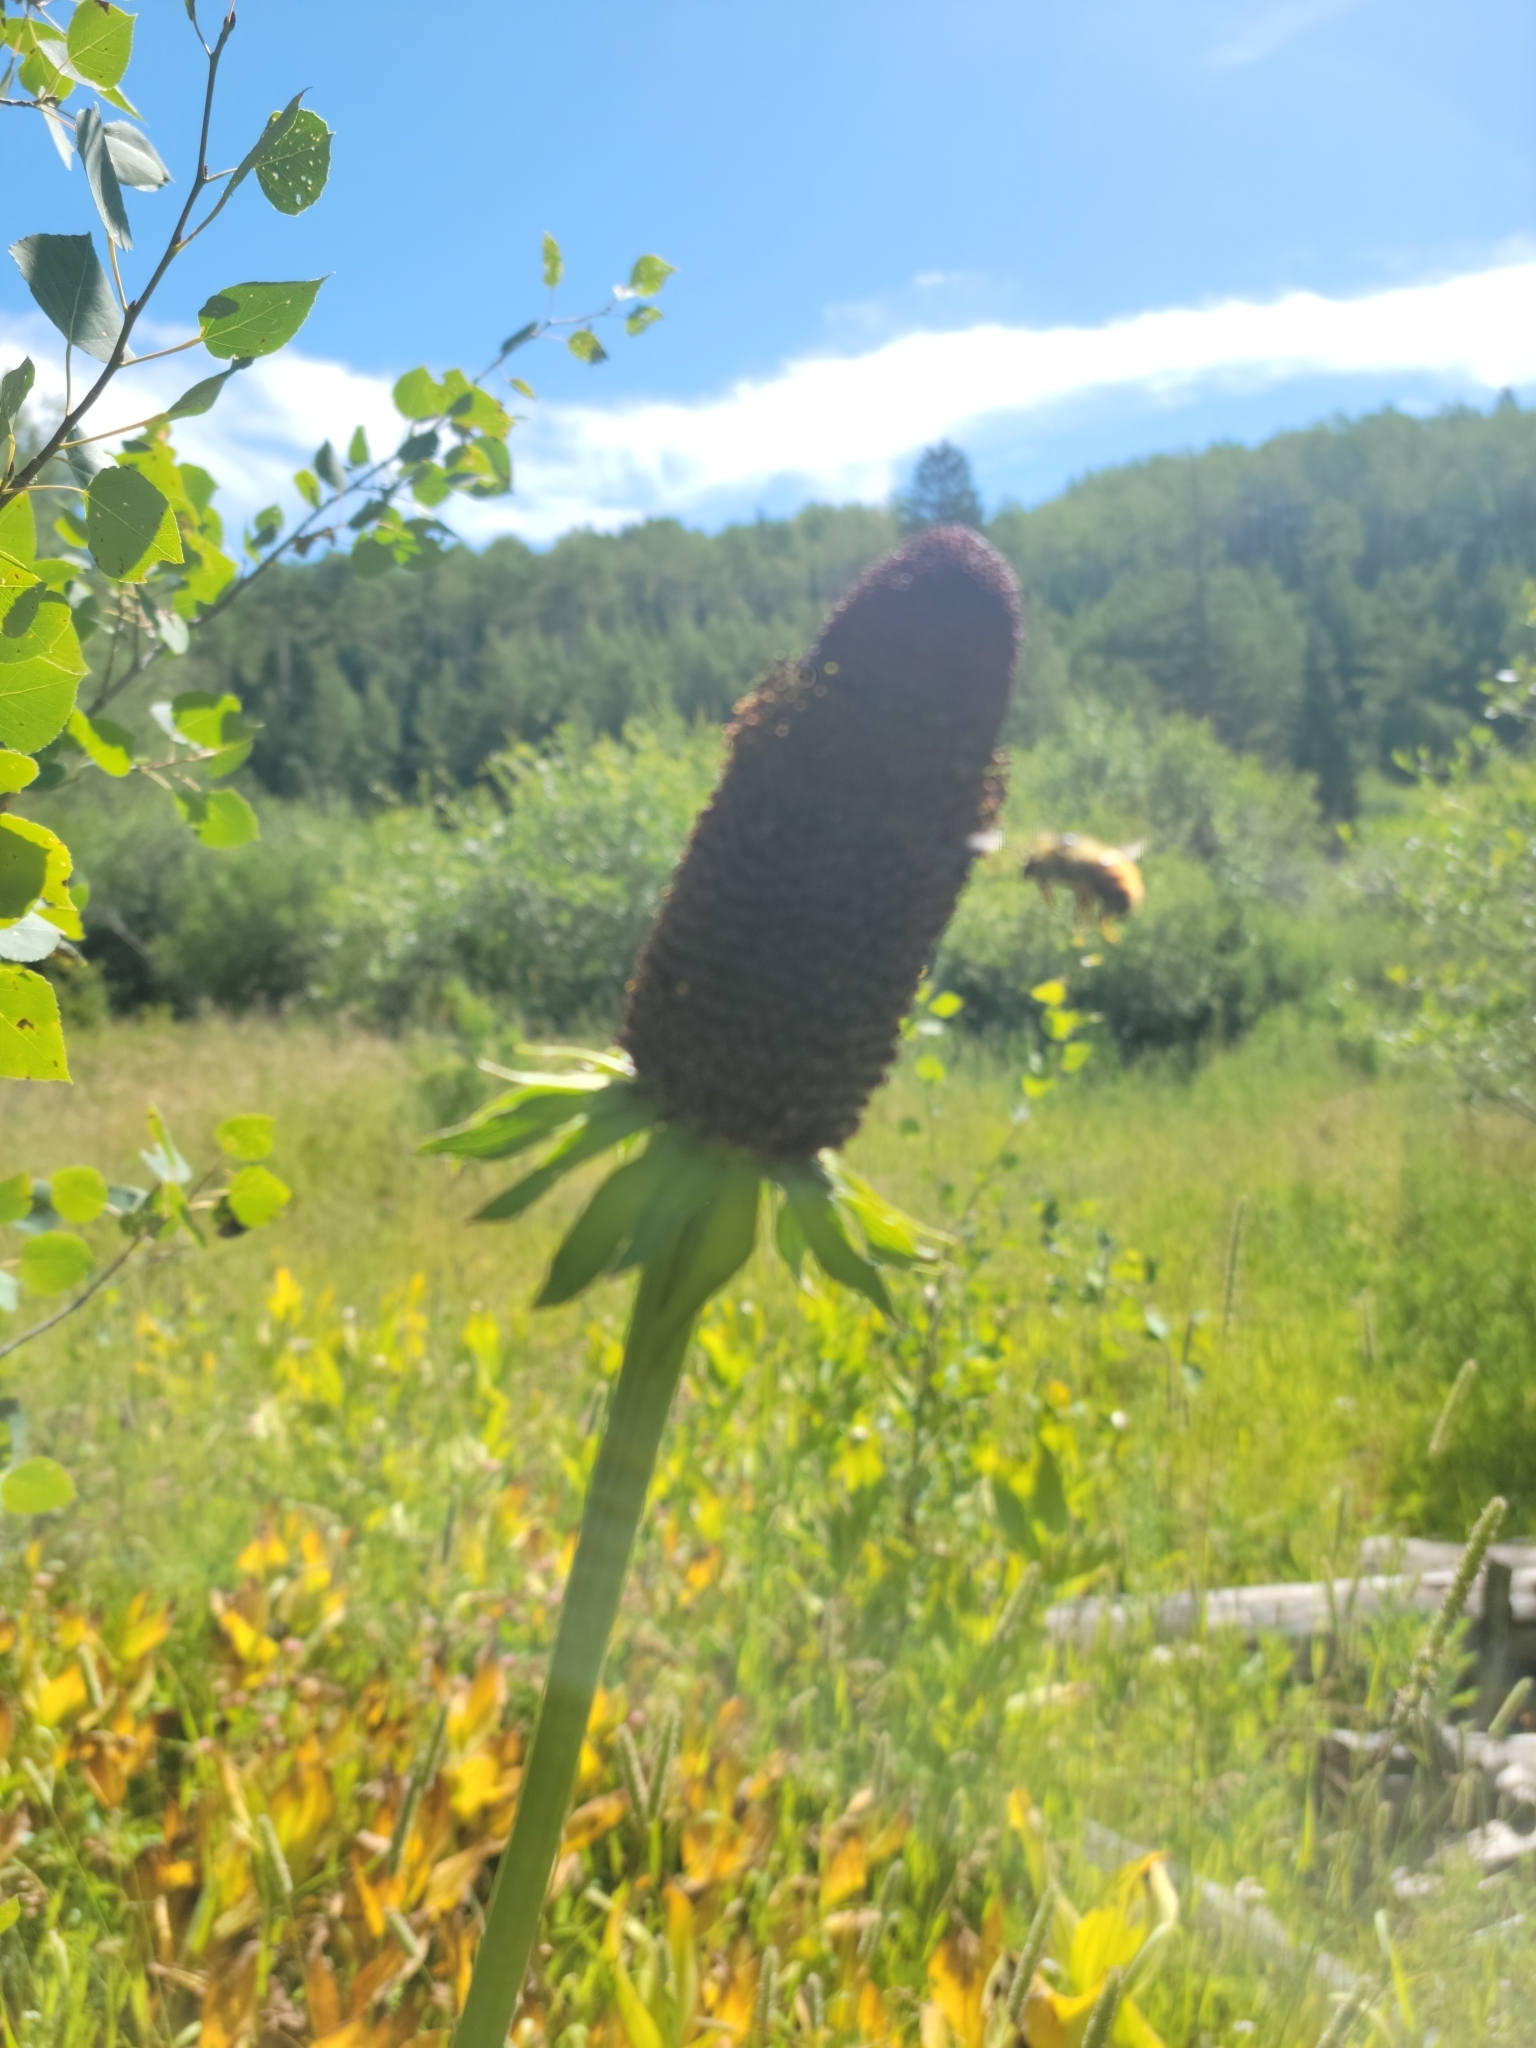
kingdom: Plantae
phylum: Tracheophyta
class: Magnoliopsida
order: Asterales
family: Asteraceae
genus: Rudbeckia
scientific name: Rudbeckia occidentalis
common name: Western coneflower
